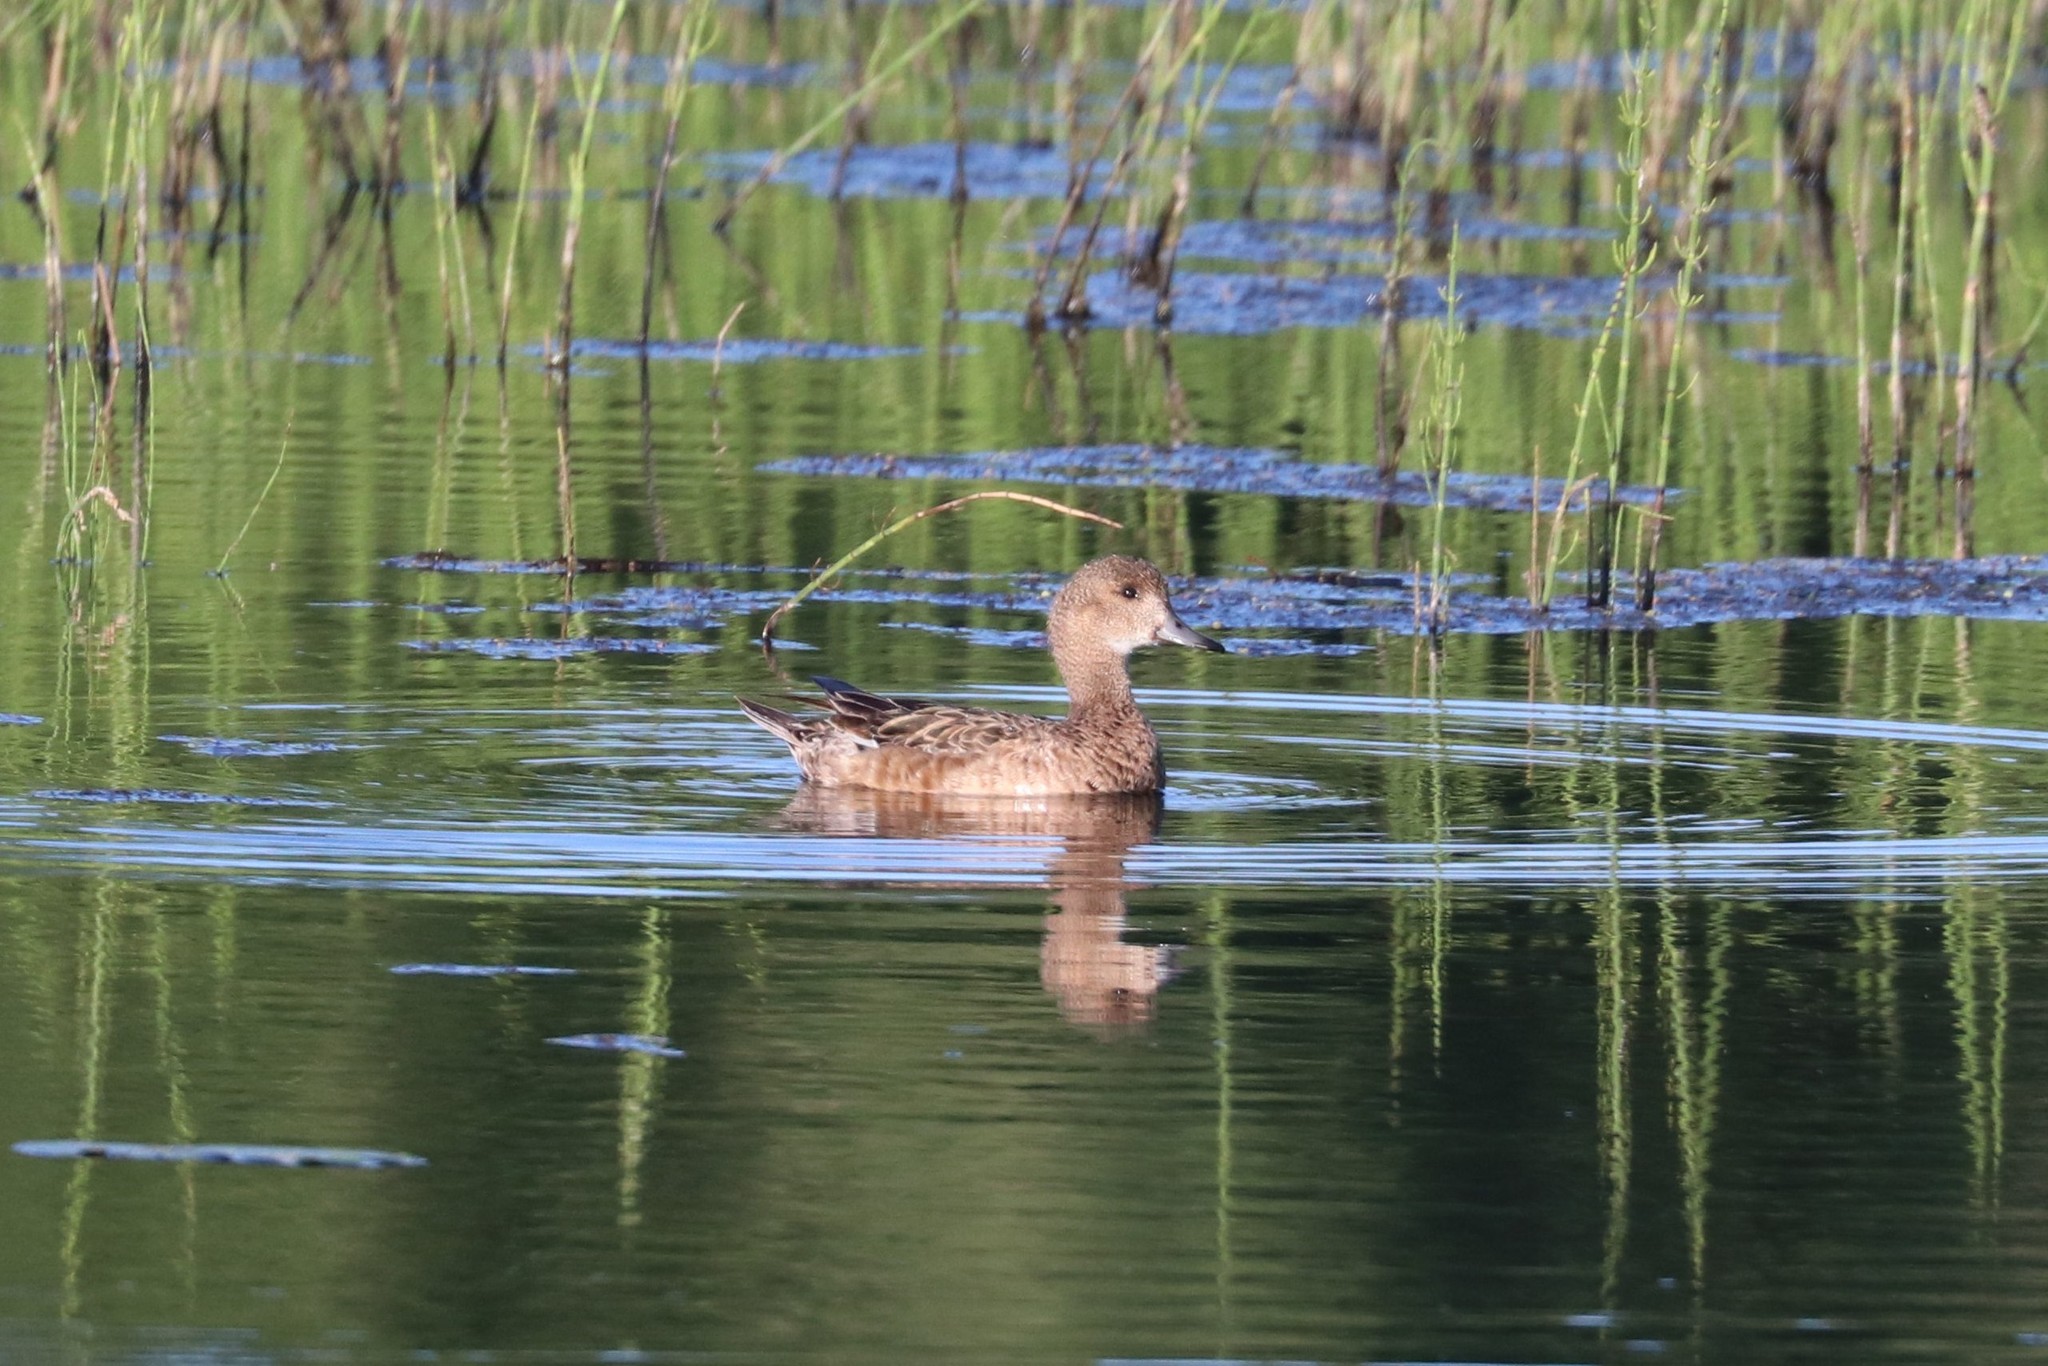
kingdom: Animalia
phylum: Chordata
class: Aves
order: Anseriformes
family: Anatidae
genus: Mareca
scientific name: Mareca penelope
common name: Eurasian wigeon
